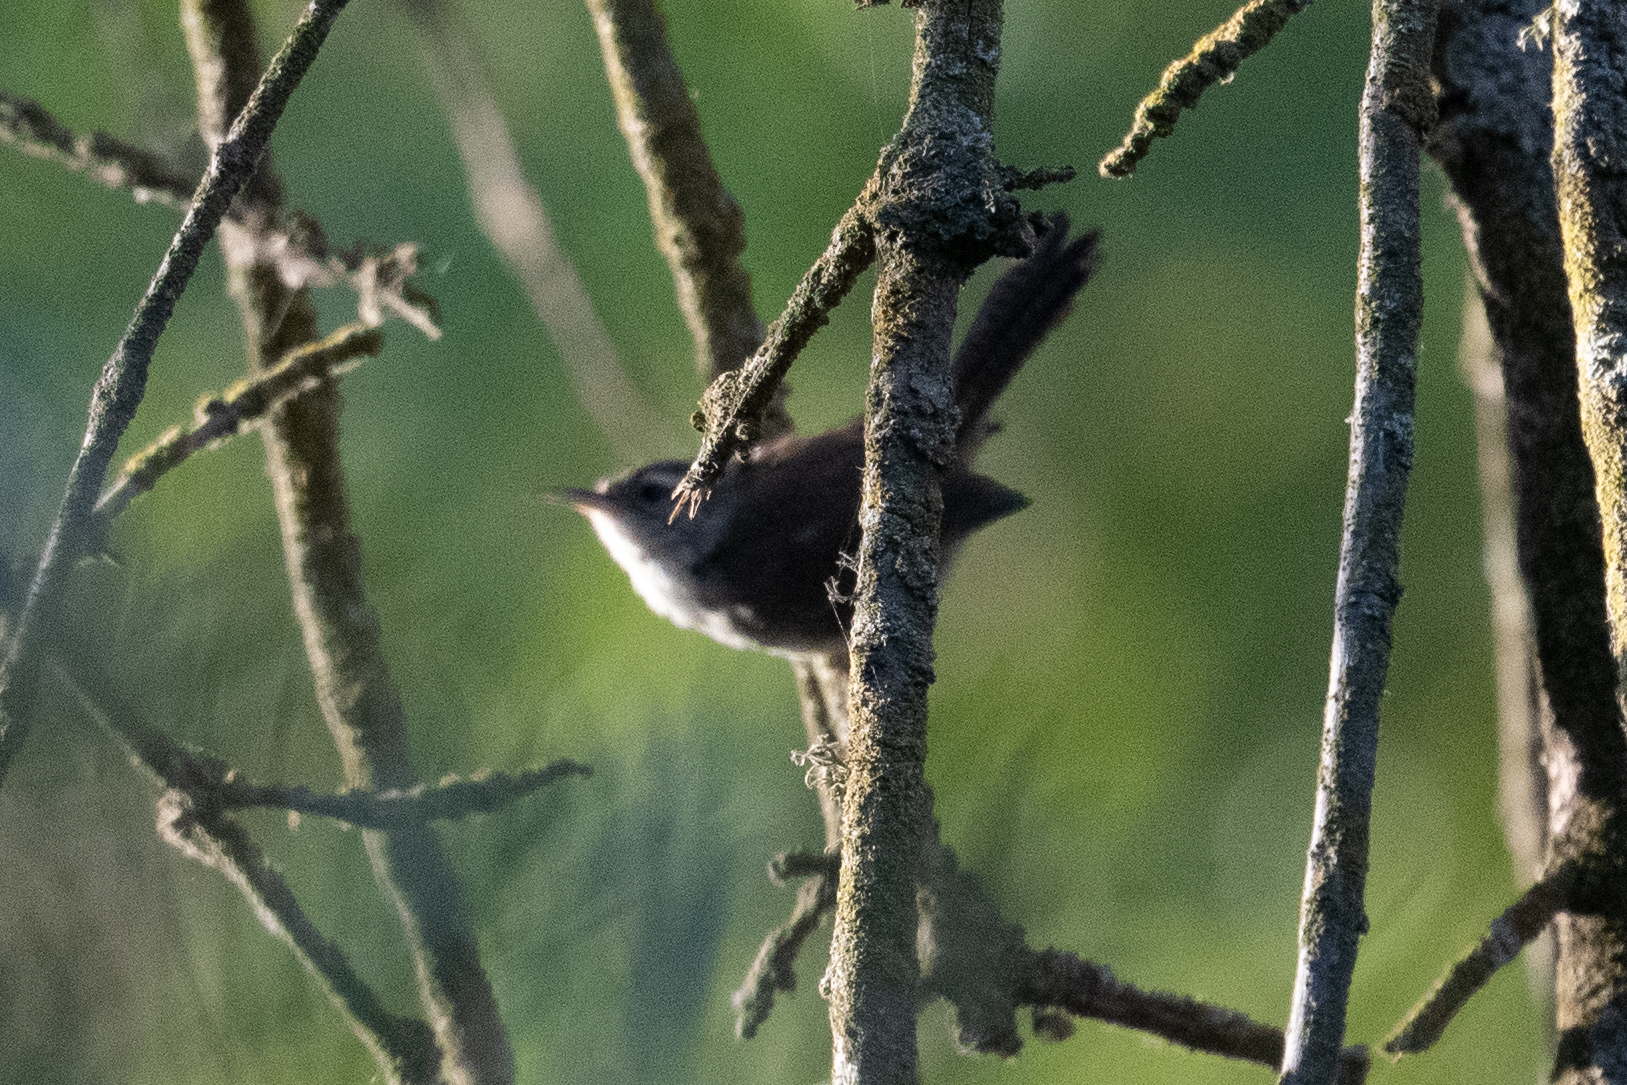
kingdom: Animalia
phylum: Chordata
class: Aves
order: Passeriformes
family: Troglodytidae
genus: Thryomanes
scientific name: Thryomanes bewickii
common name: Bewick's wren
